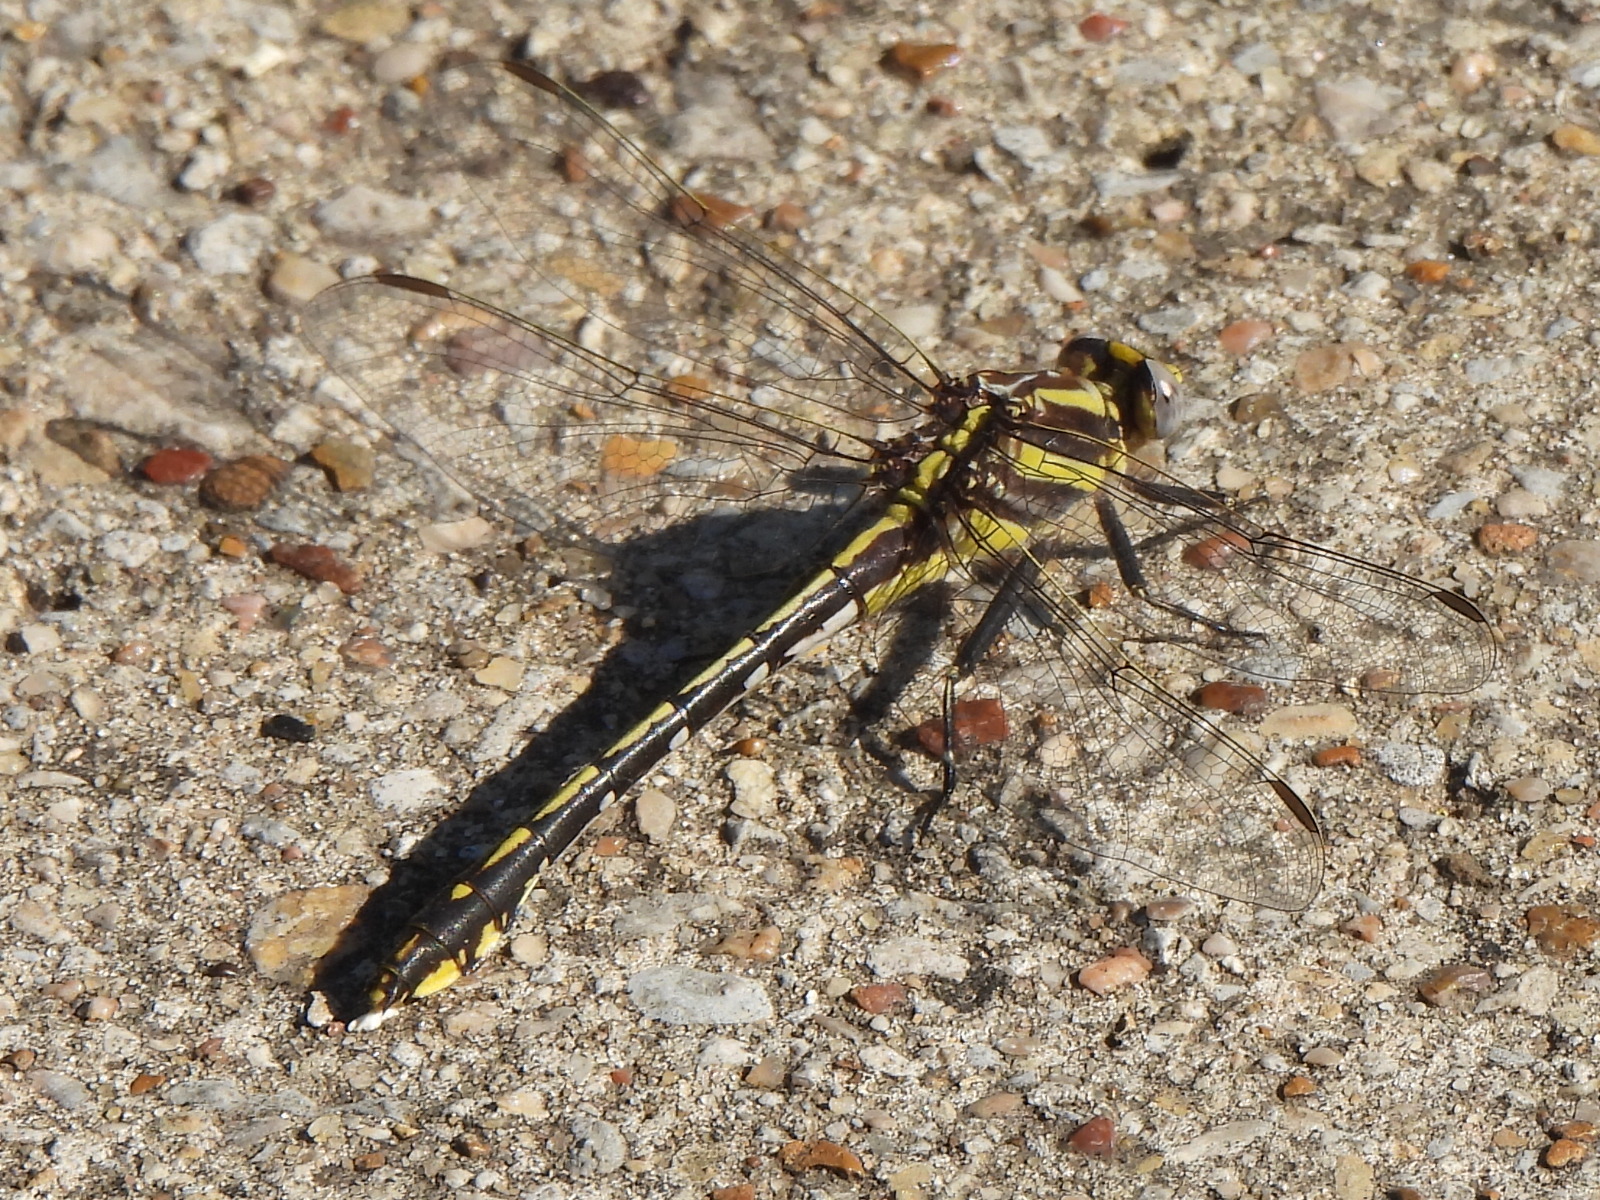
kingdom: Animalia
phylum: Arthropoda
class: Insecta
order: Odonata
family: Gomphidae
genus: Gomphurus
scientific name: Gomphurus externus
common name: Plains clubtail
